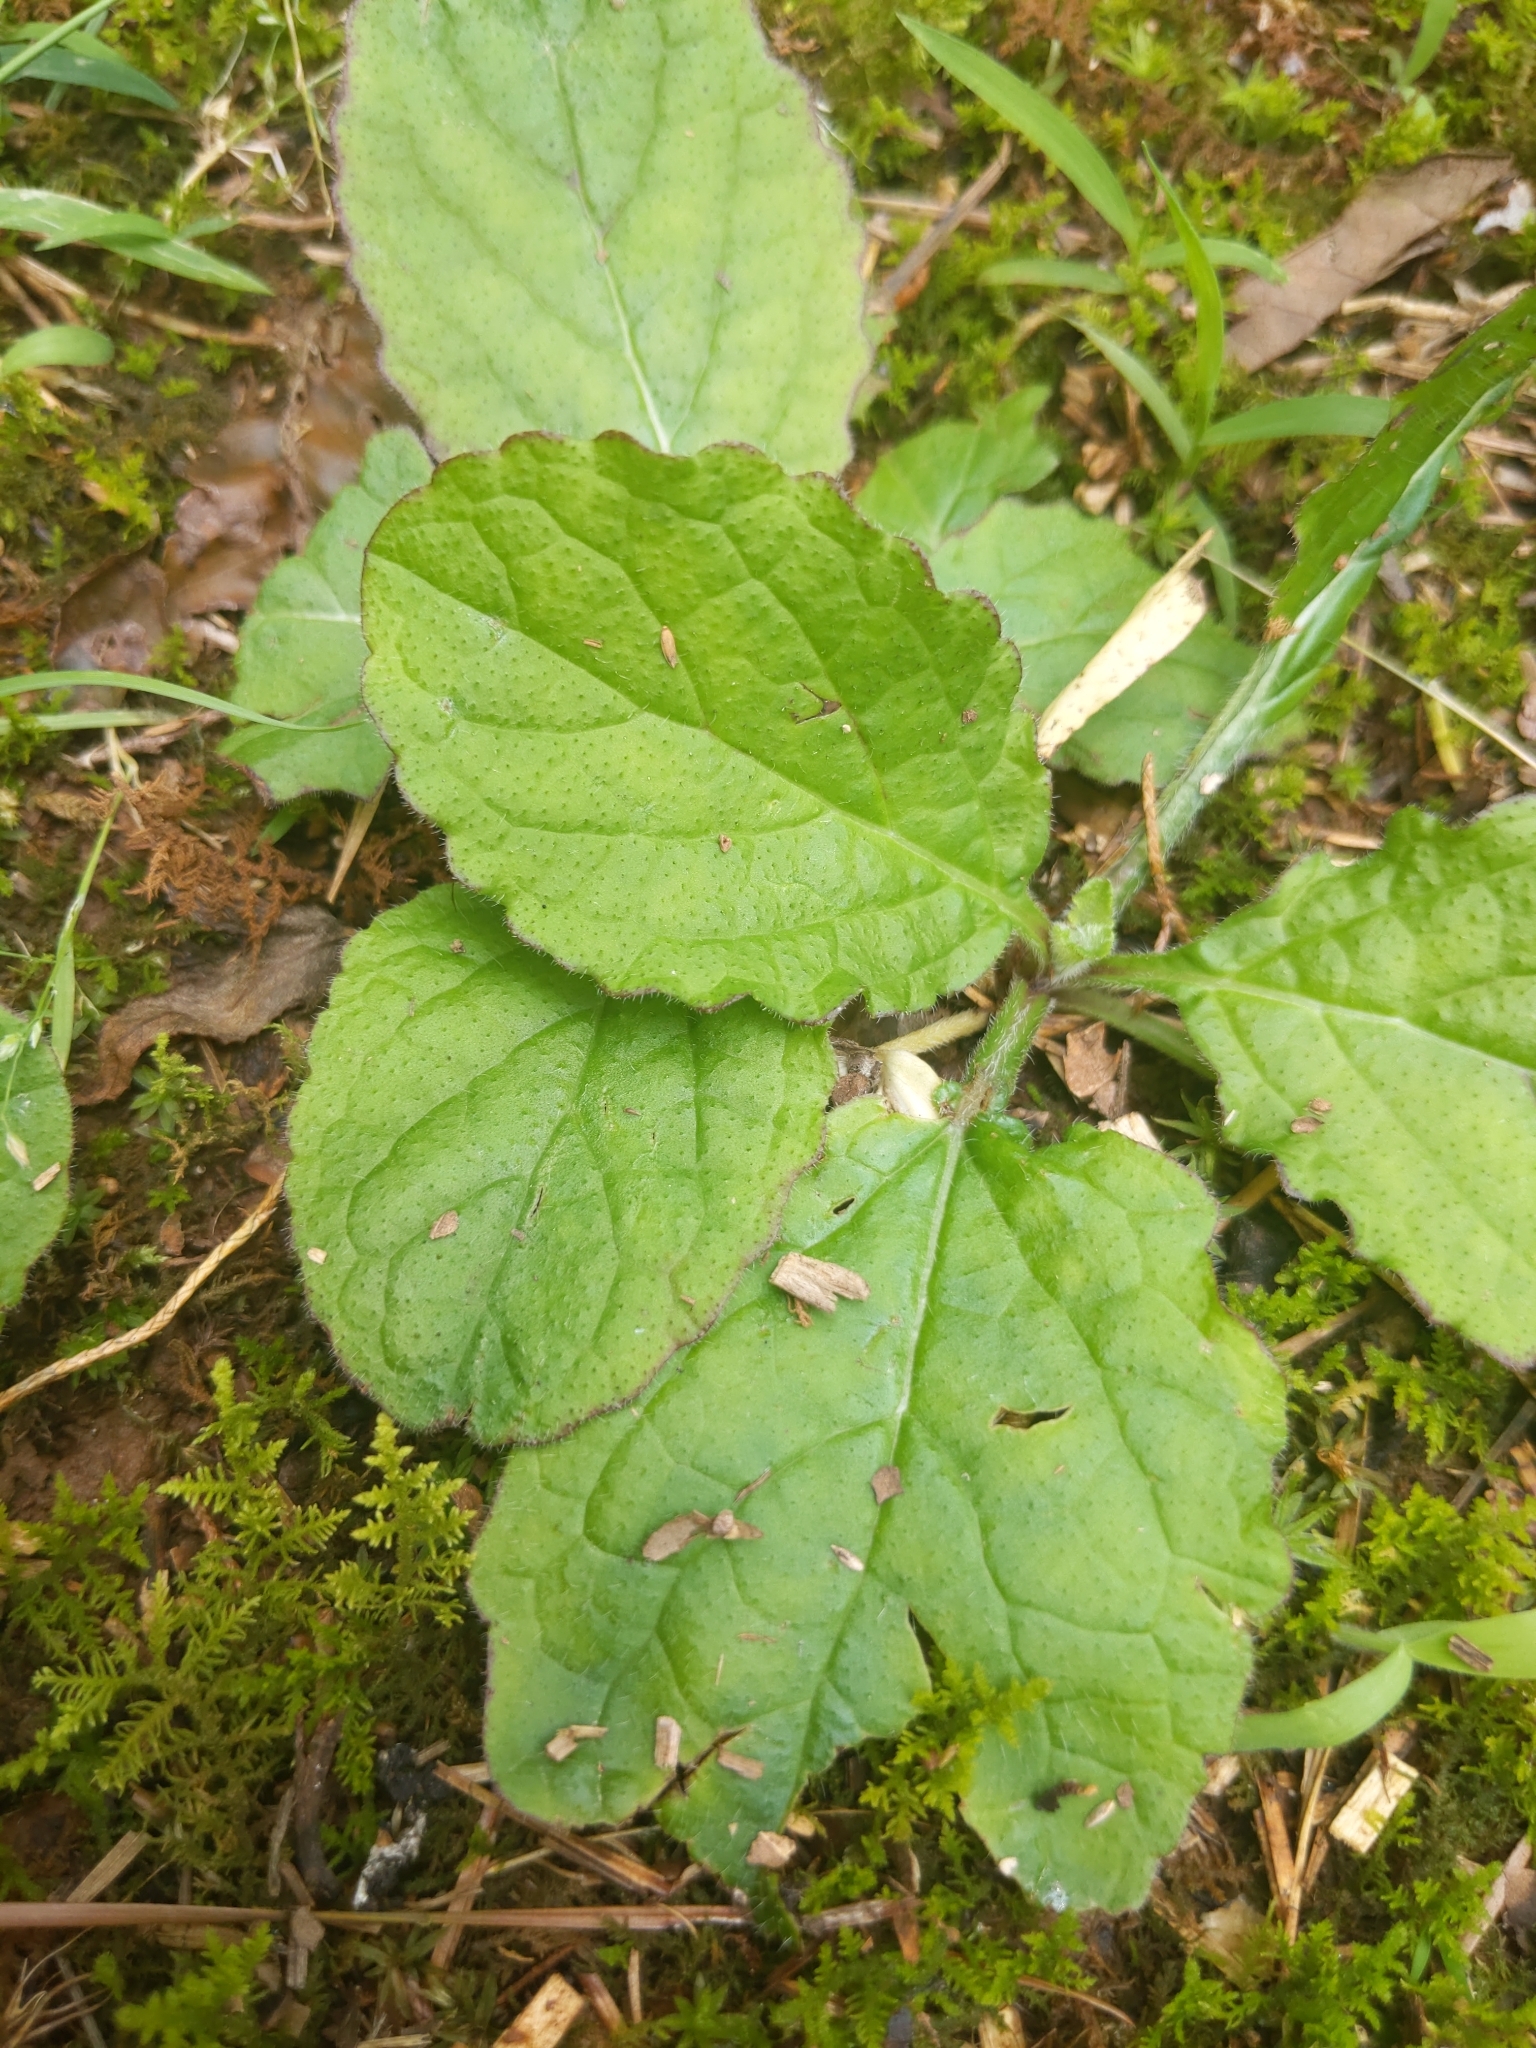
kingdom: Plantae
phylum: Tracheophyta
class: Magnoliopsida
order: Lamiales
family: Lamiaceae
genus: Salvia
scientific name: Salvia lyrata
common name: Cancerweed
